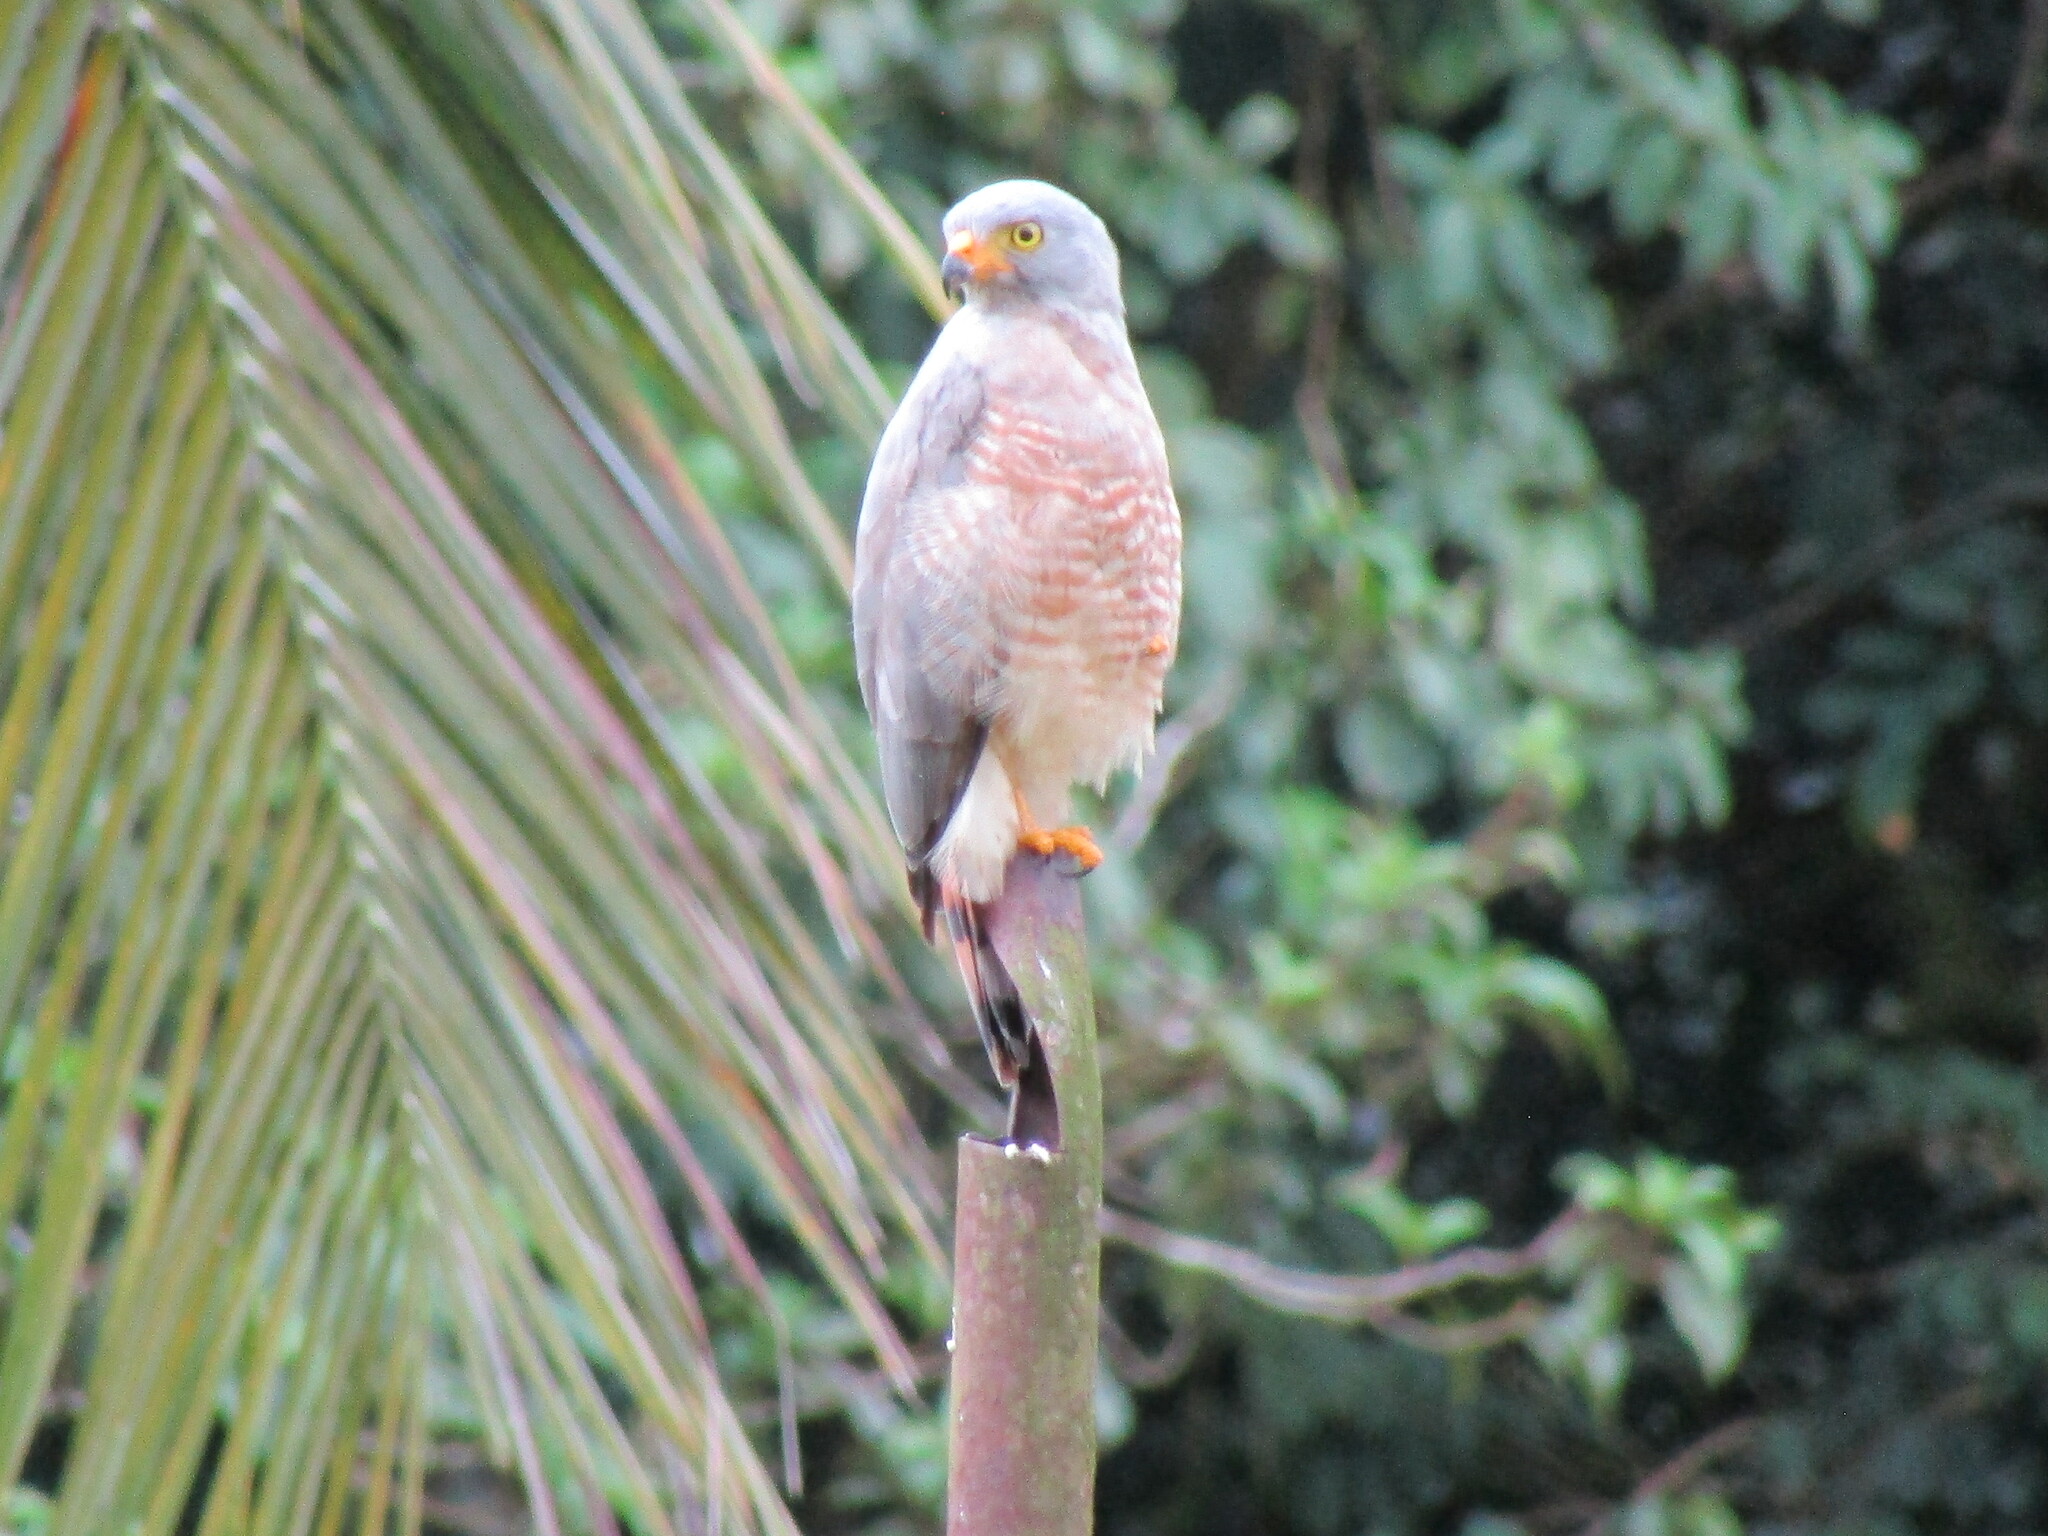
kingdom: Animalia
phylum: Chordata
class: Aves
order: Accipitriformes
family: Accipitridae
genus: Rupornis
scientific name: Rupornis magnirostris
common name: Roadside hawk
